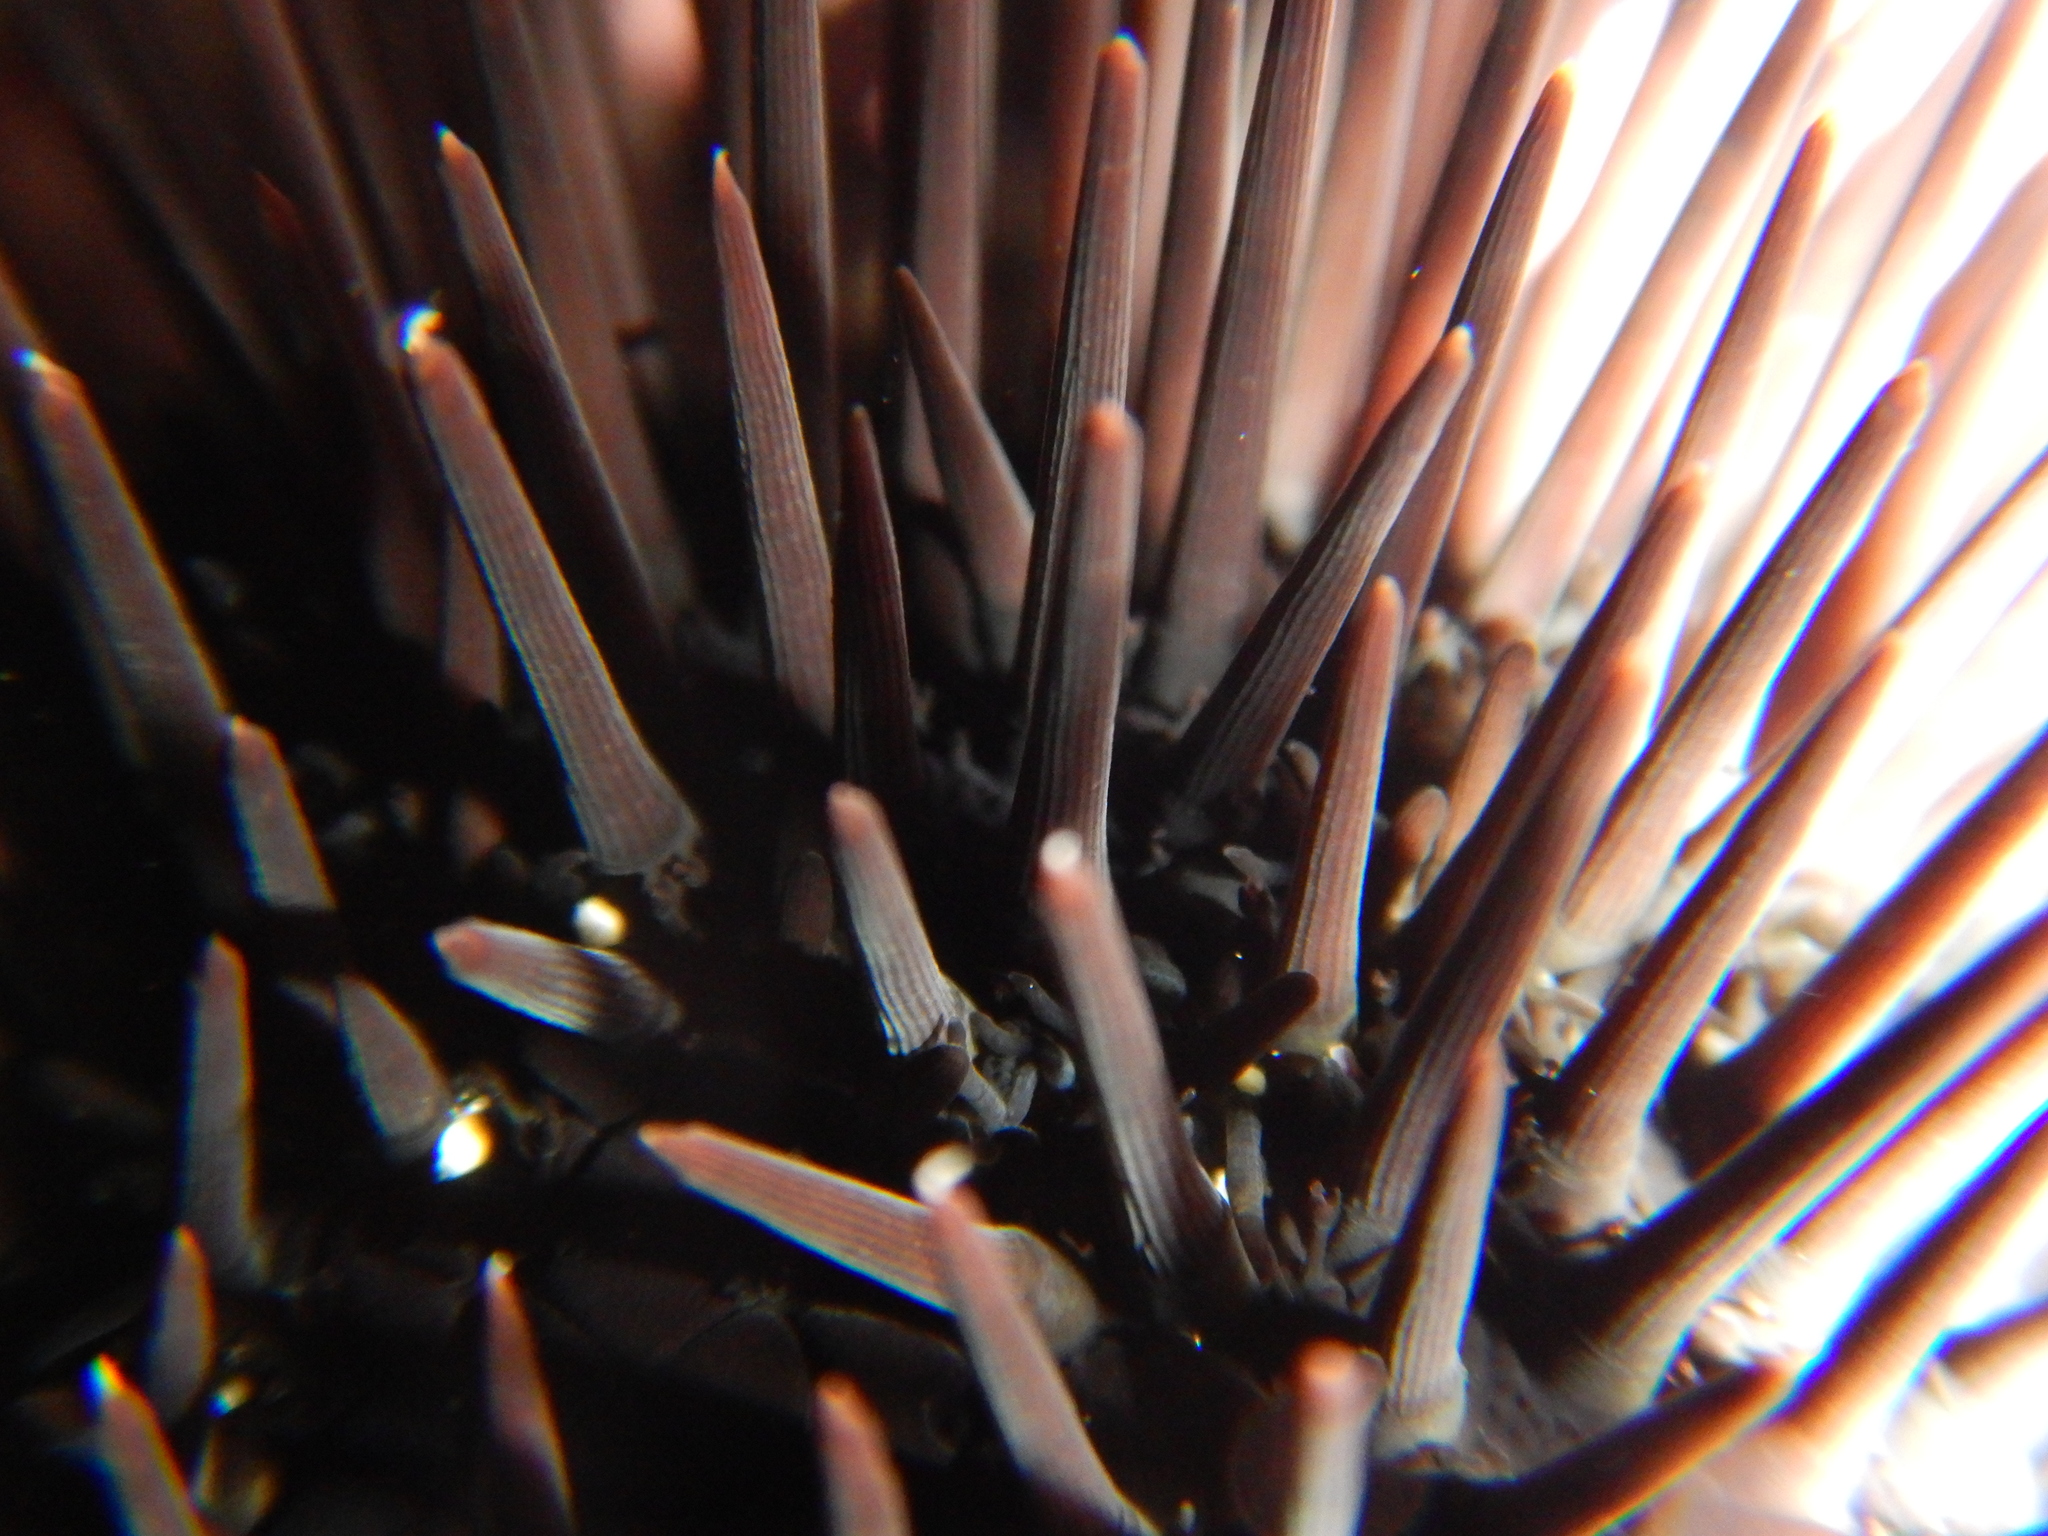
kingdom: Animalia
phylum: Echinodermata
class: Echinoidea
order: Arbacioida
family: Arbaciidae
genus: Arbacia
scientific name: Arbacia lixula
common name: Black sea urchin
